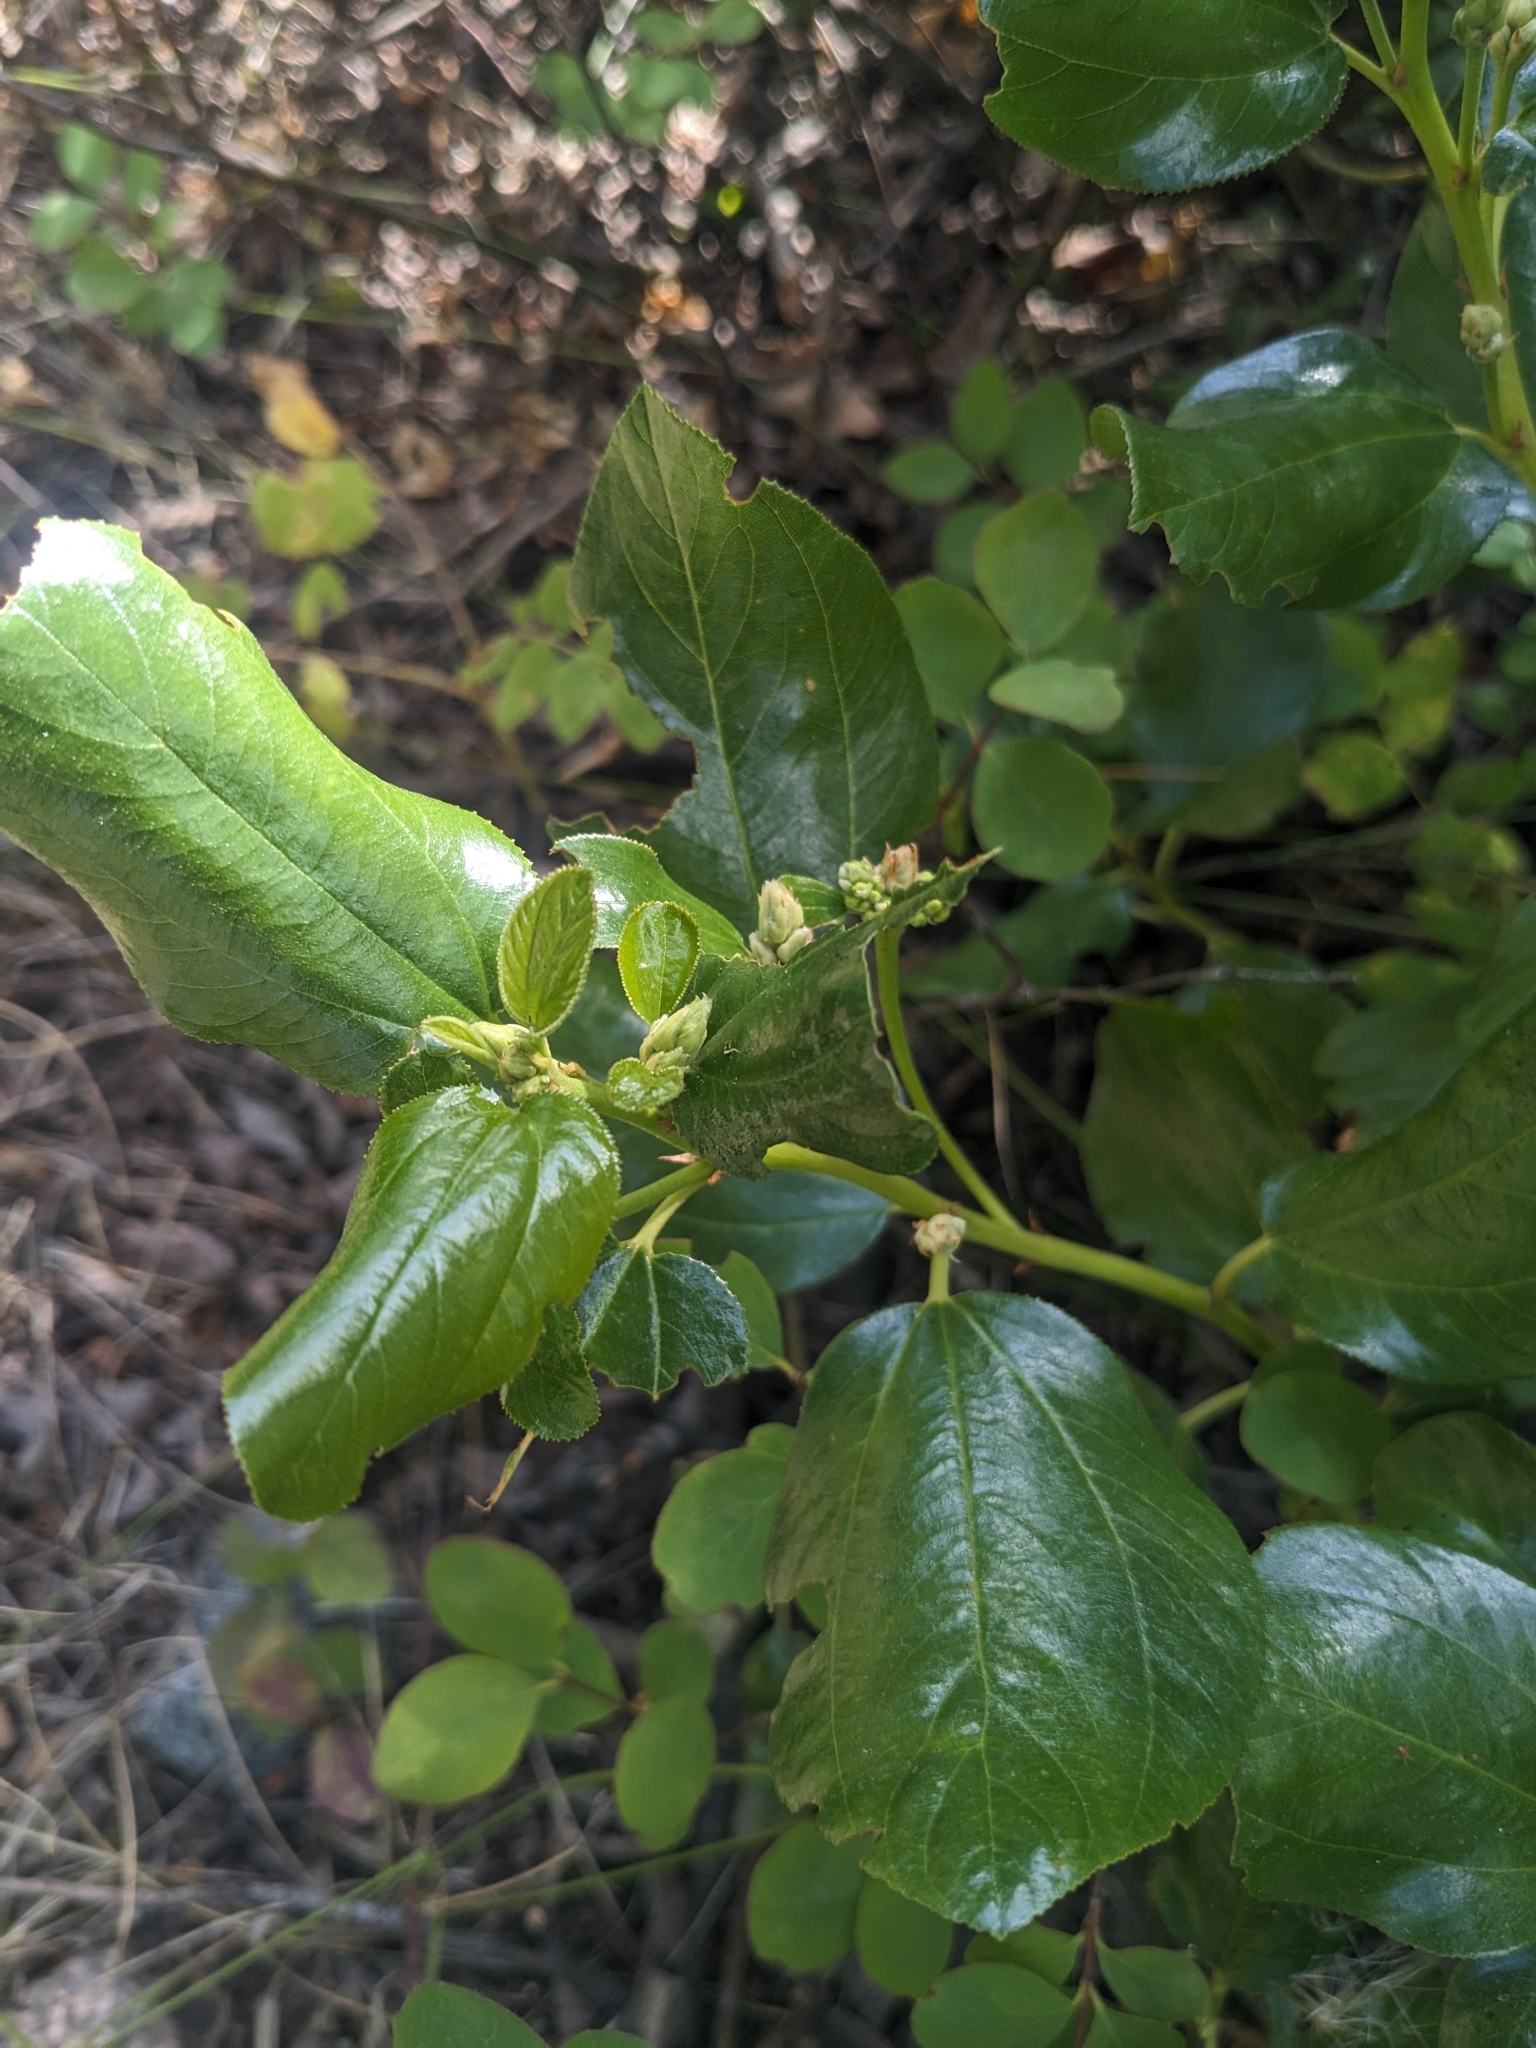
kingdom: Plantae
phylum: Tracheophyta
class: Magnoliopsida
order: Rosales
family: Rhamnaceae
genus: Ceanothus
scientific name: Ceanothus velutinus
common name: Snowbrush
